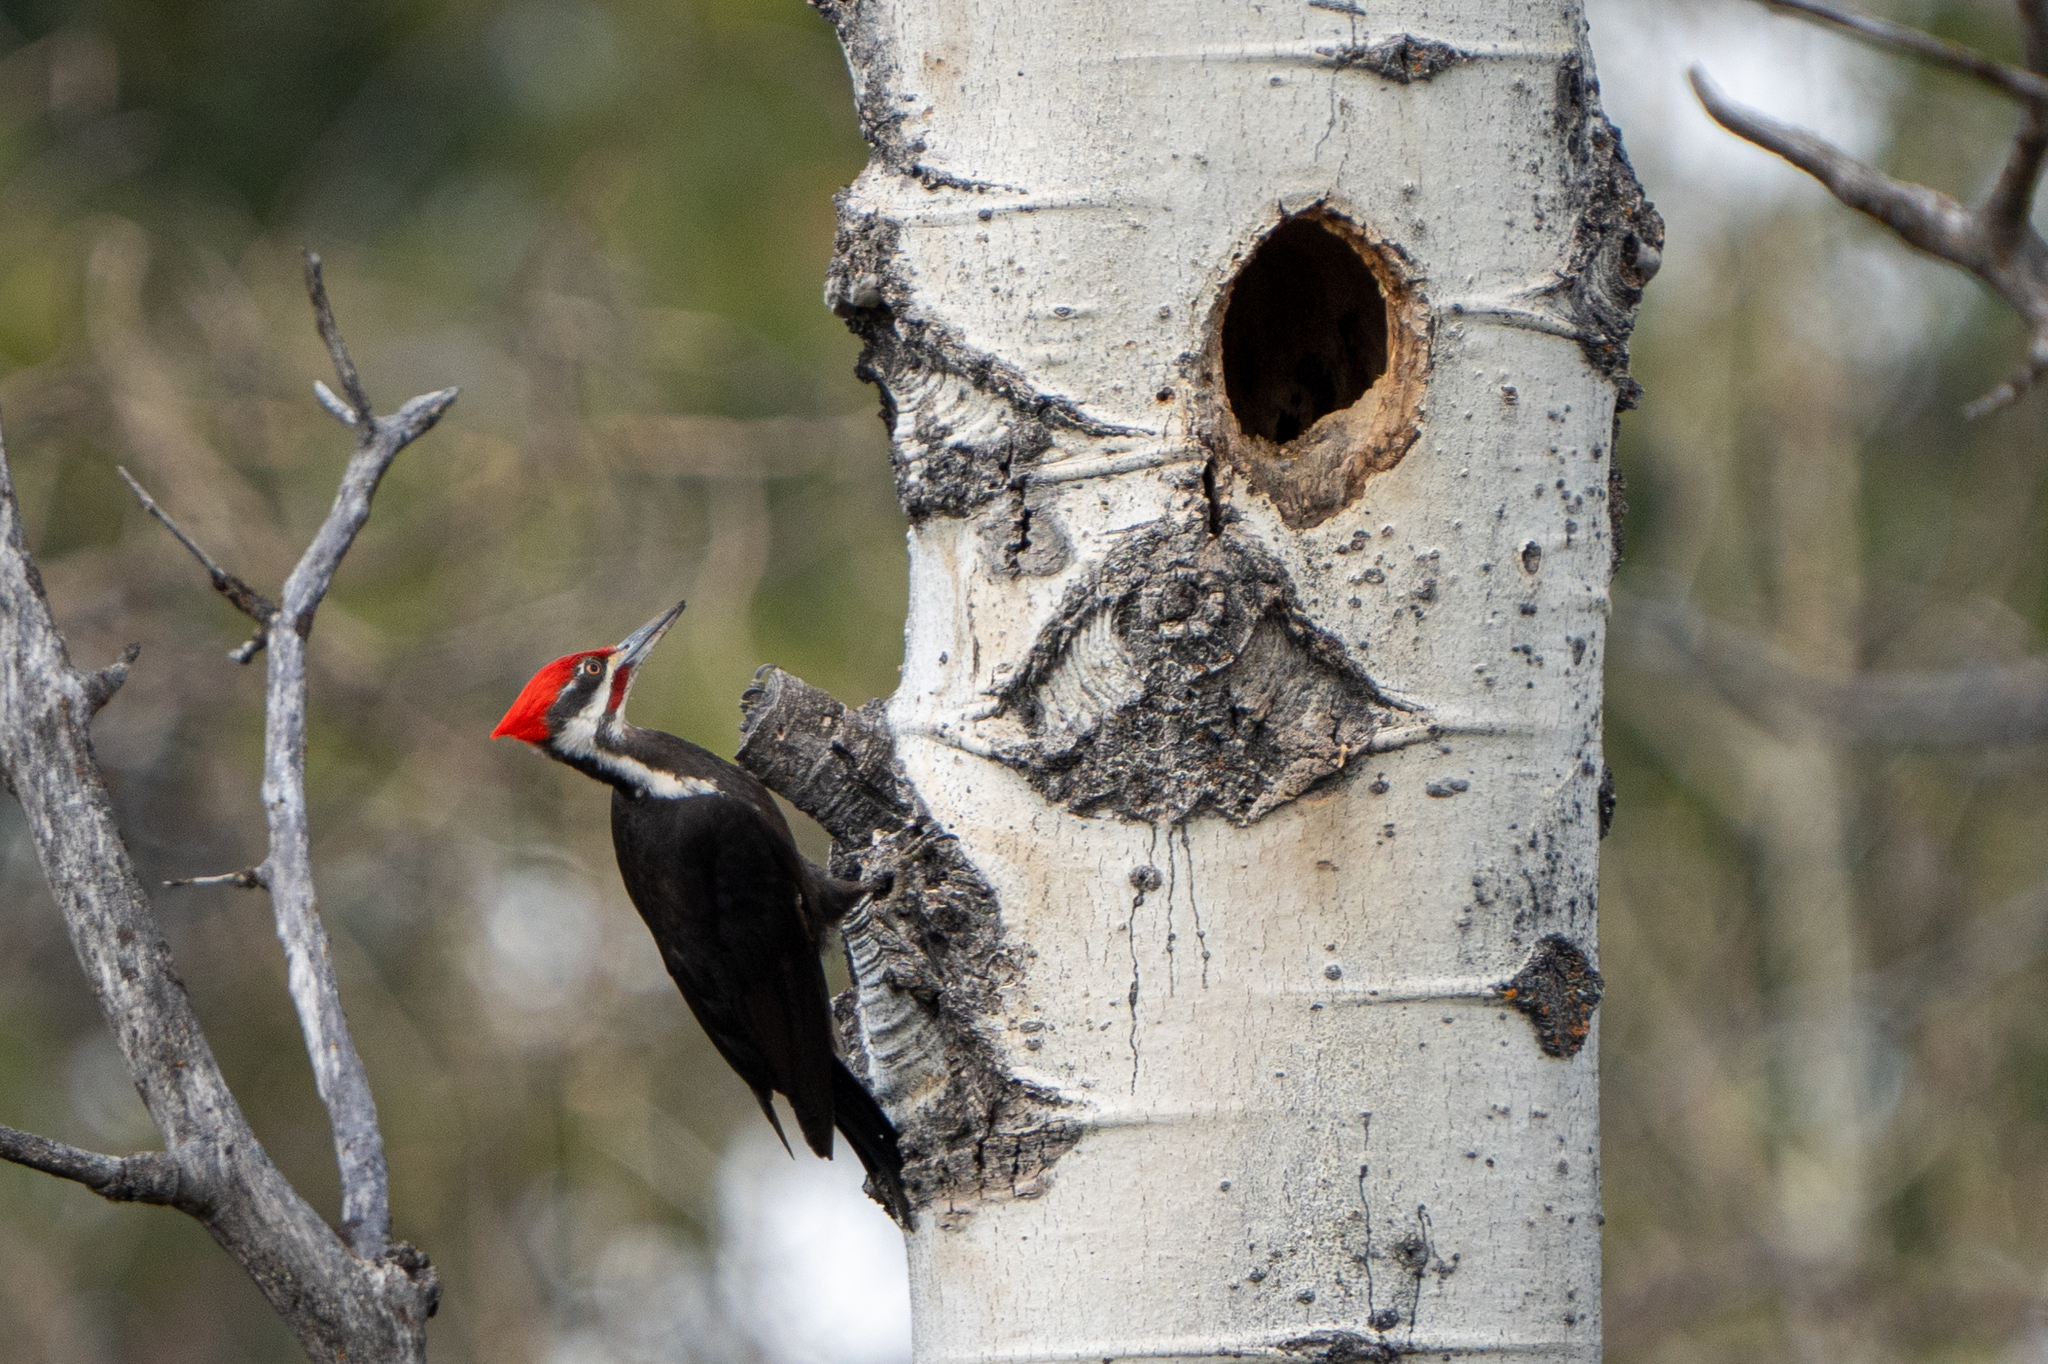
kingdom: Animalia
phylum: Chordata
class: Aves
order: Piciformes
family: Picidae
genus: Dryocopus
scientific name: Dryocopus pileatus
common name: Pileated woodpecker
